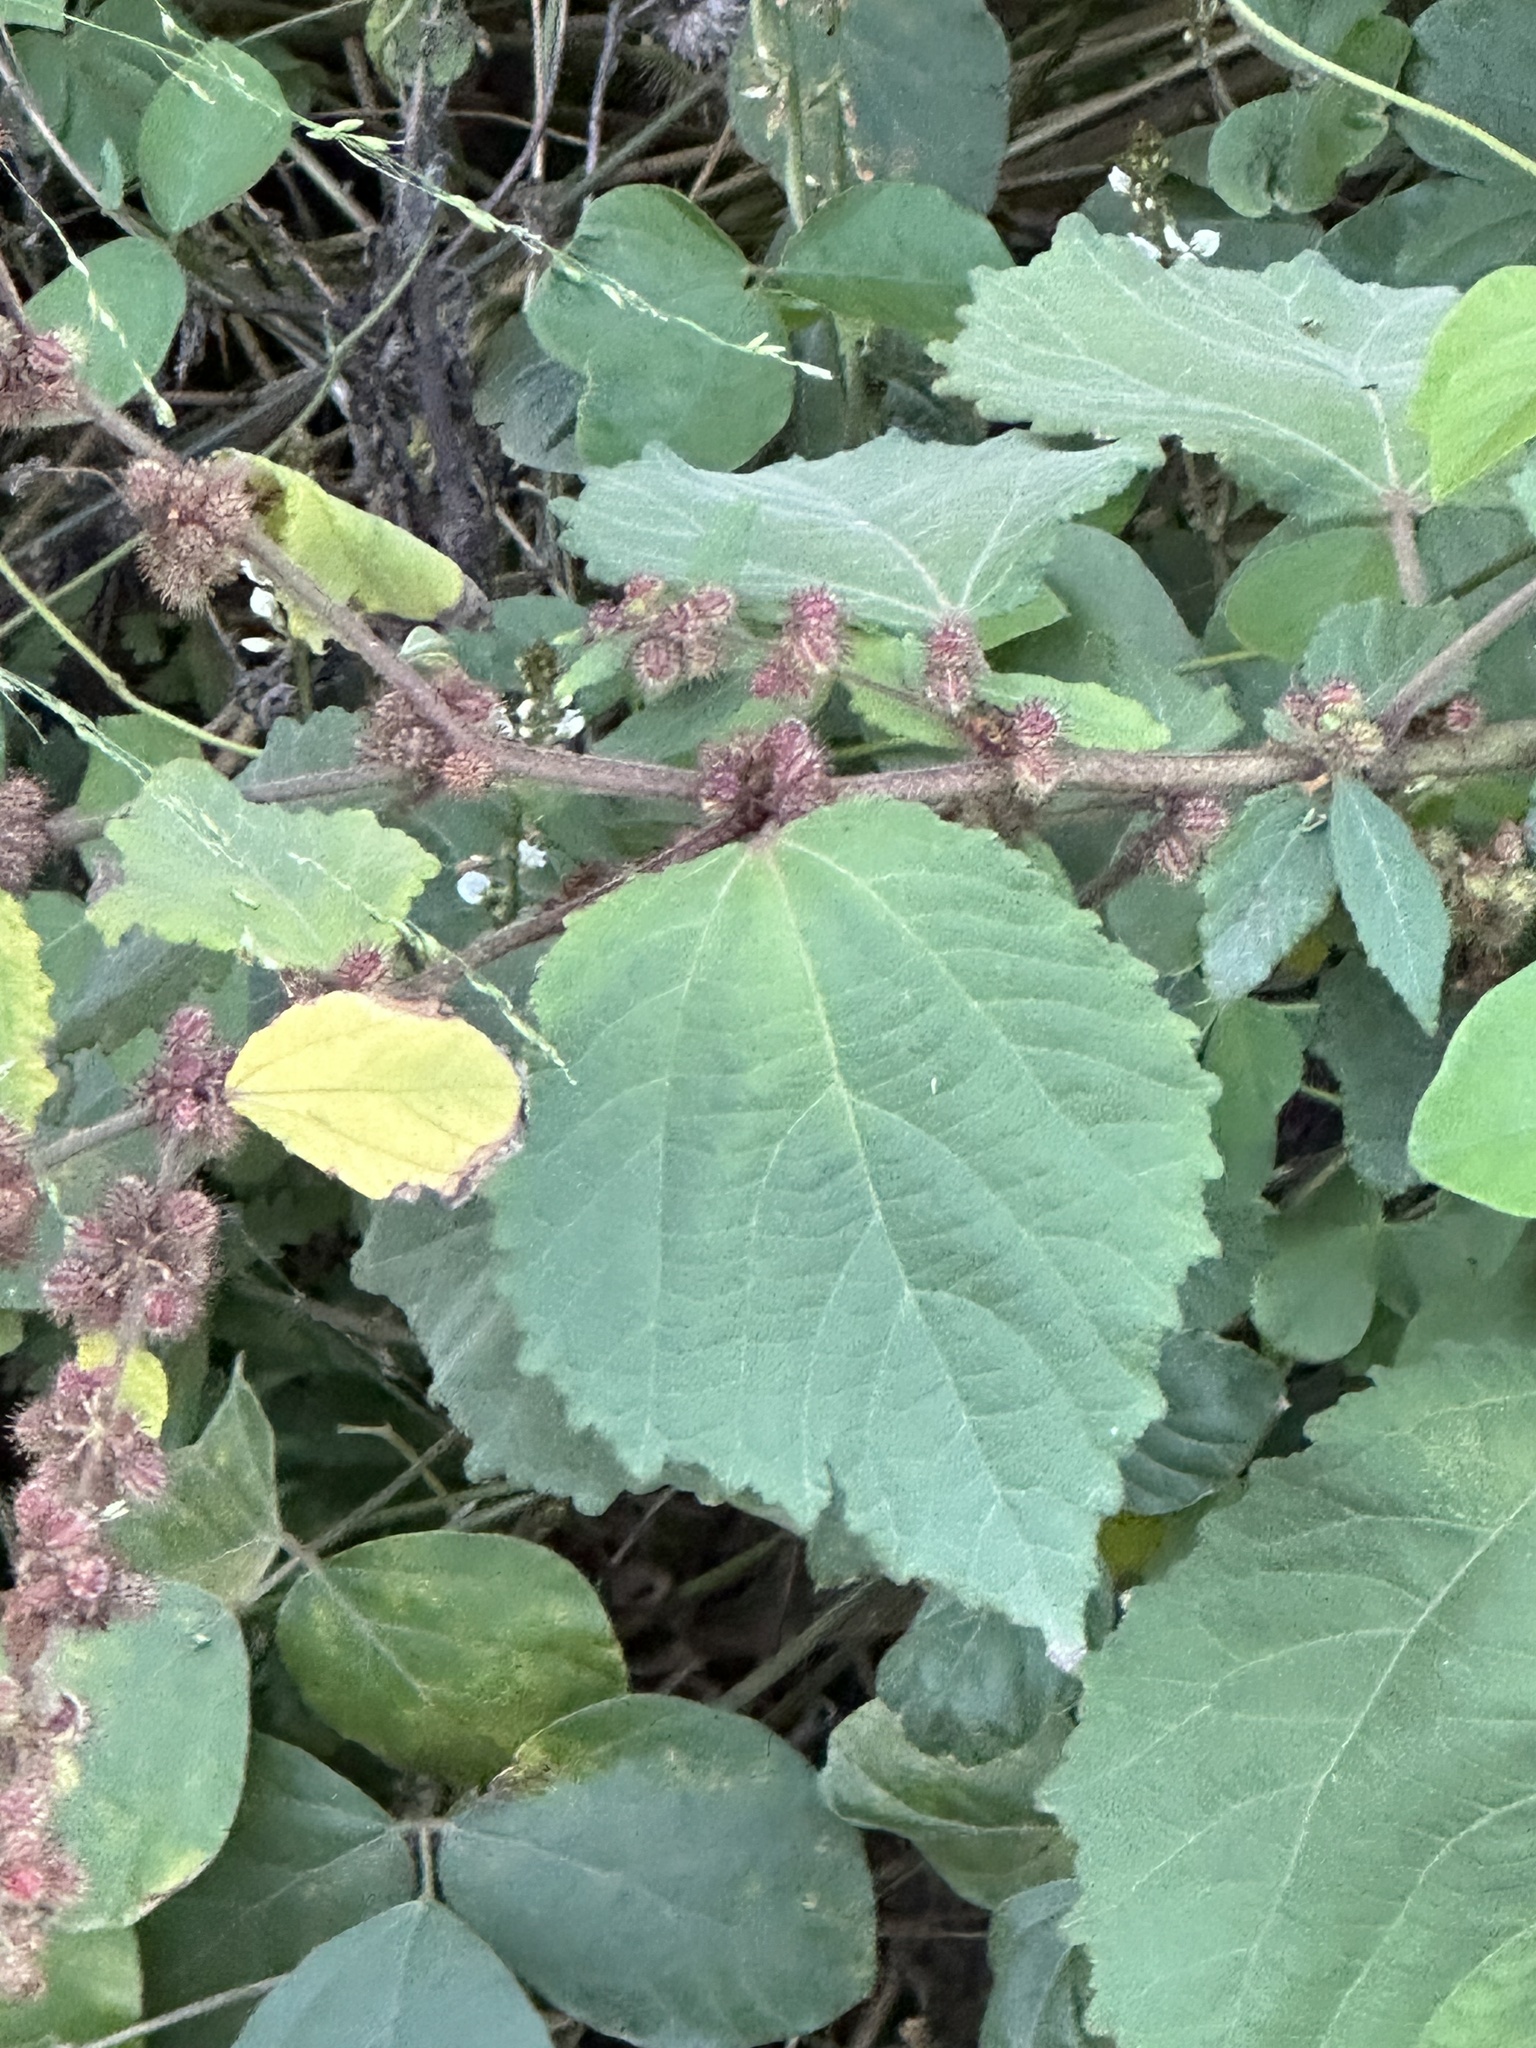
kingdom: Plantae
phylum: Tracheophyta
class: Magnoliopsida
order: Malvales
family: Malvaceae
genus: Triumfetta
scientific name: Triumfetta rhomboidea
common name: Diamond burbark
